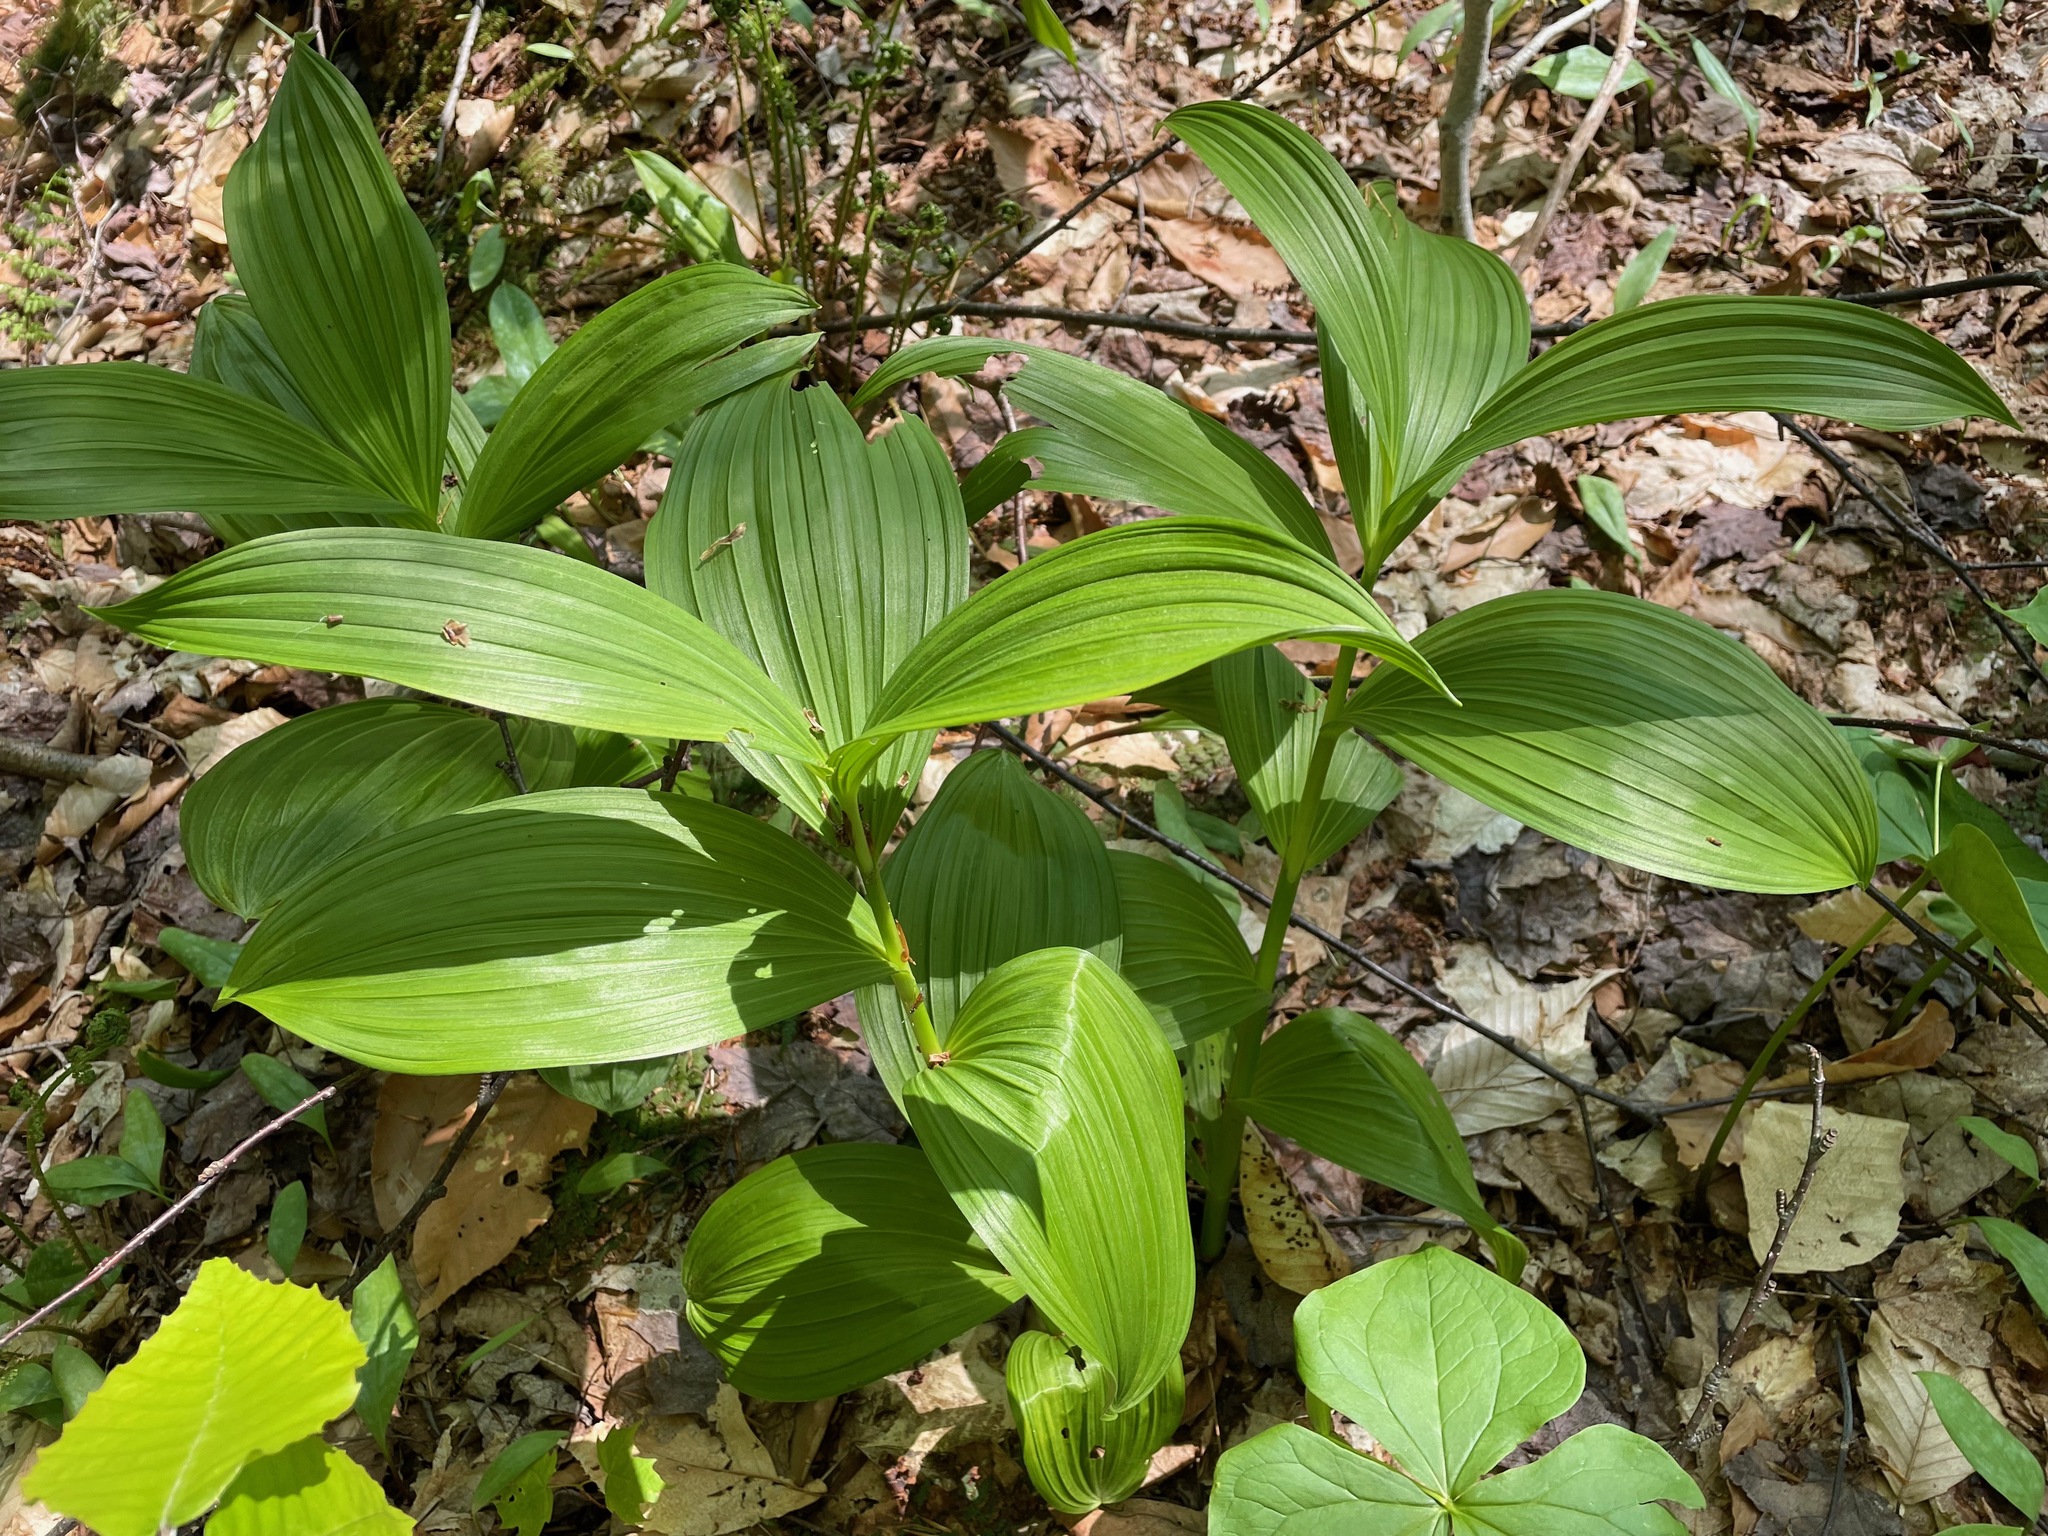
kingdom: Plantae
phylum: Tracheophyta
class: Liliopsida
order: Liliales
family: Melanthiaceae
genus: Veratrum
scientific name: Veratrum viride
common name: American false hellebore
